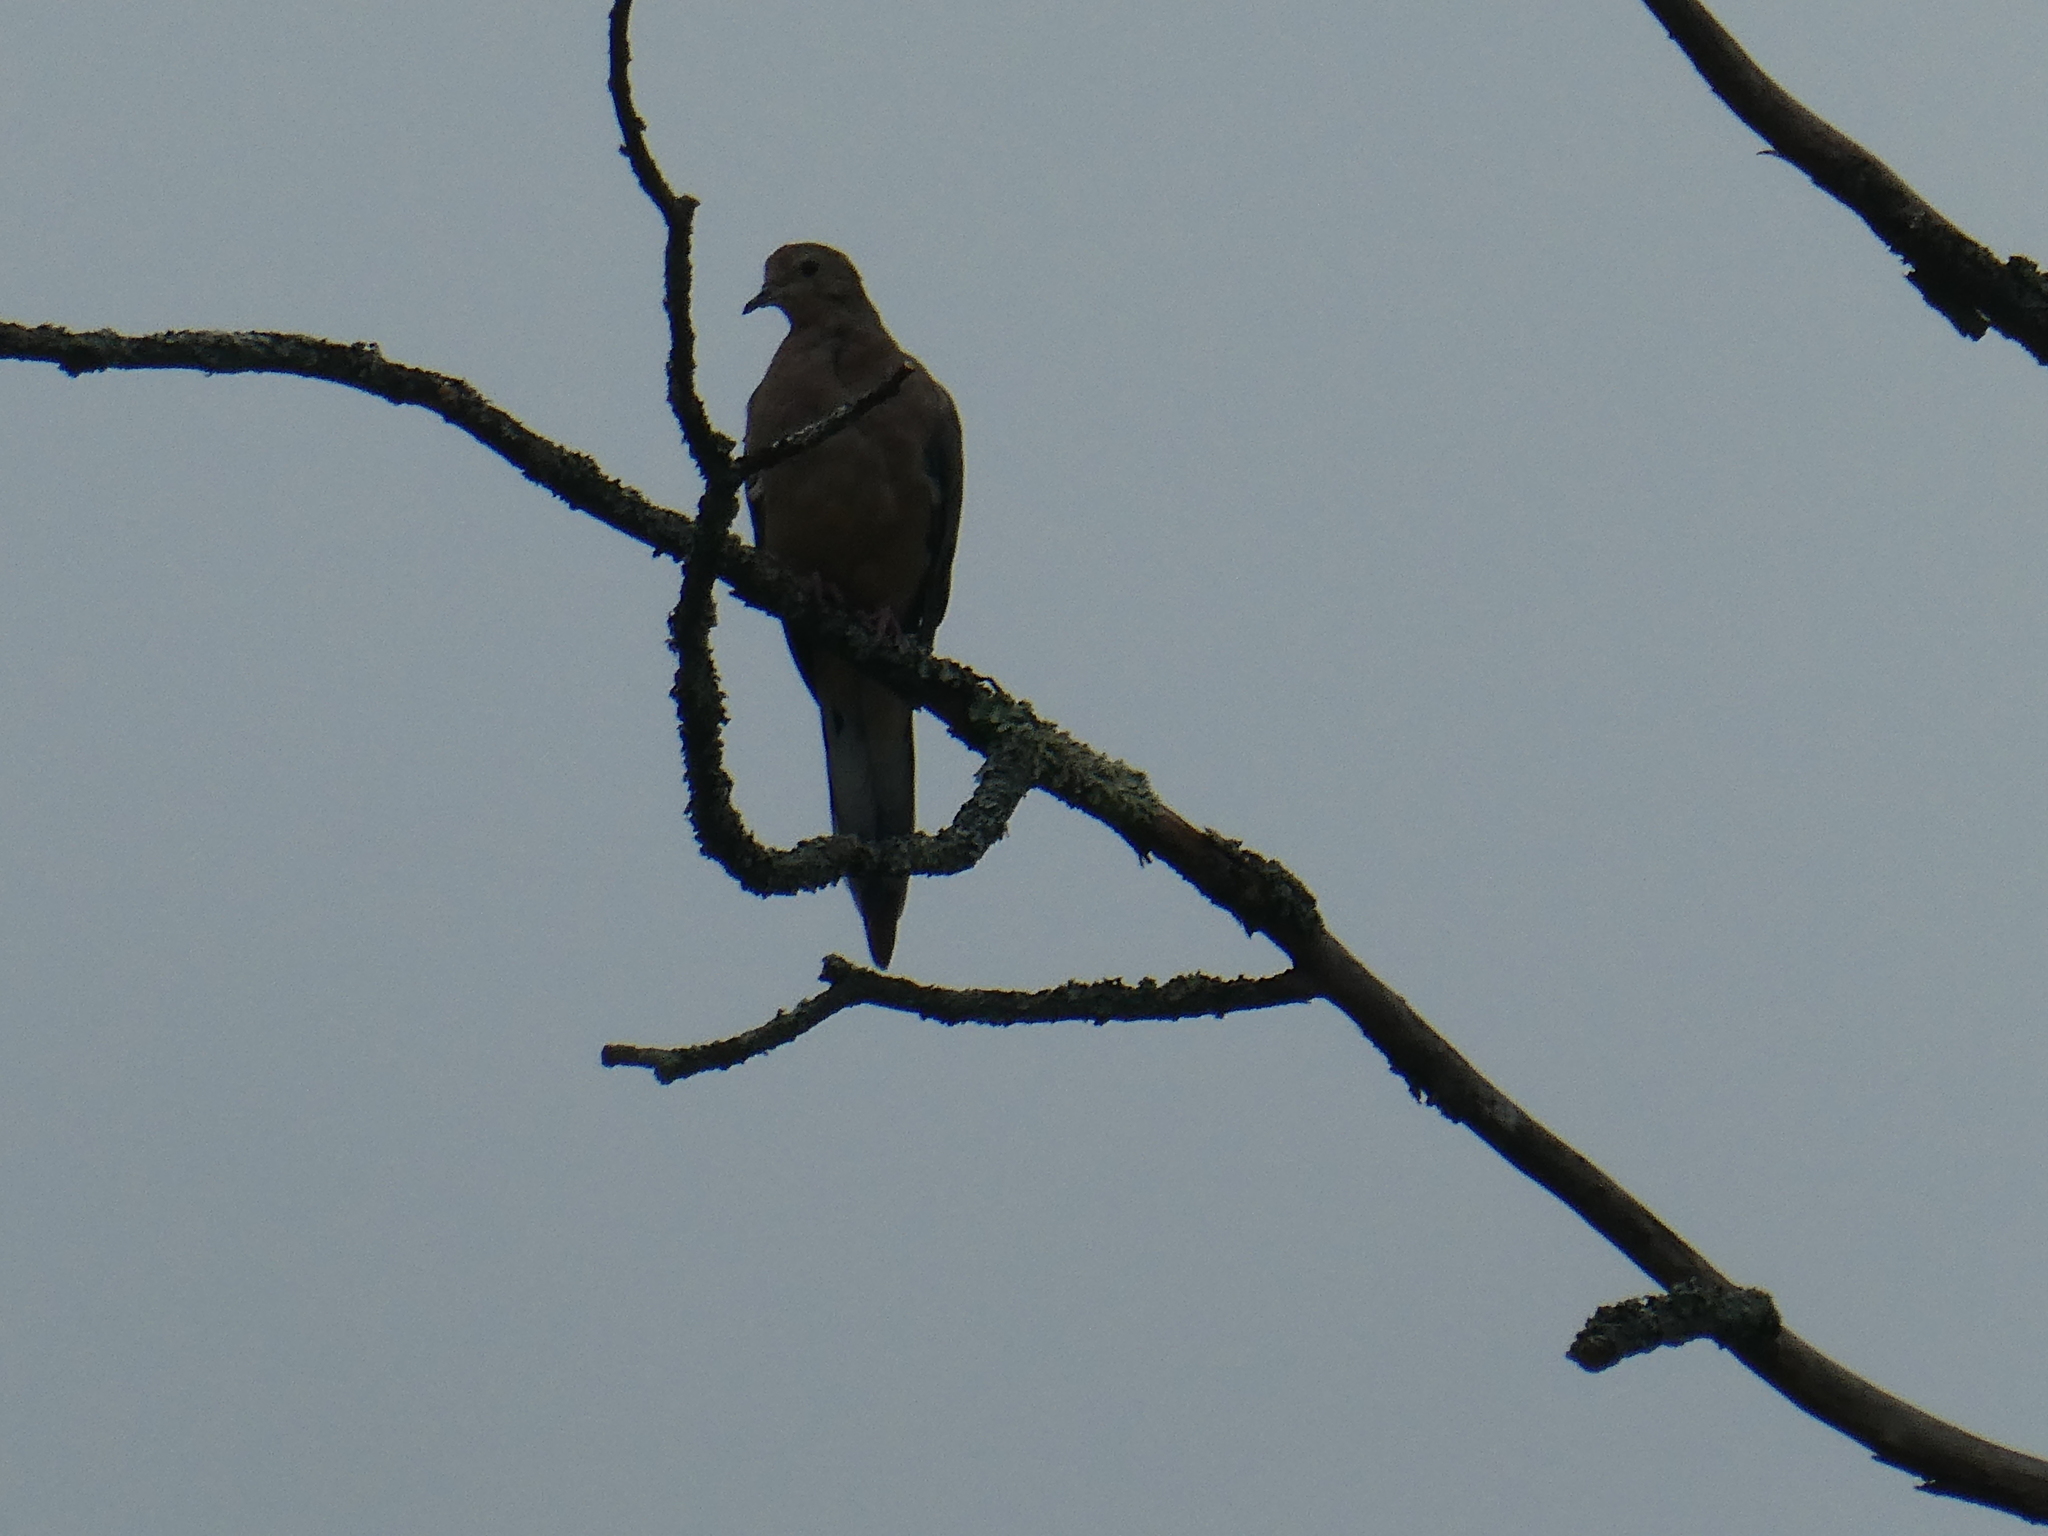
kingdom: Animalia
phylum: Chordata
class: Aves
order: Columbiformes
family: Columbidae
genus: Zenaida
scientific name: Zenaida macroura
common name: Mourning dove
